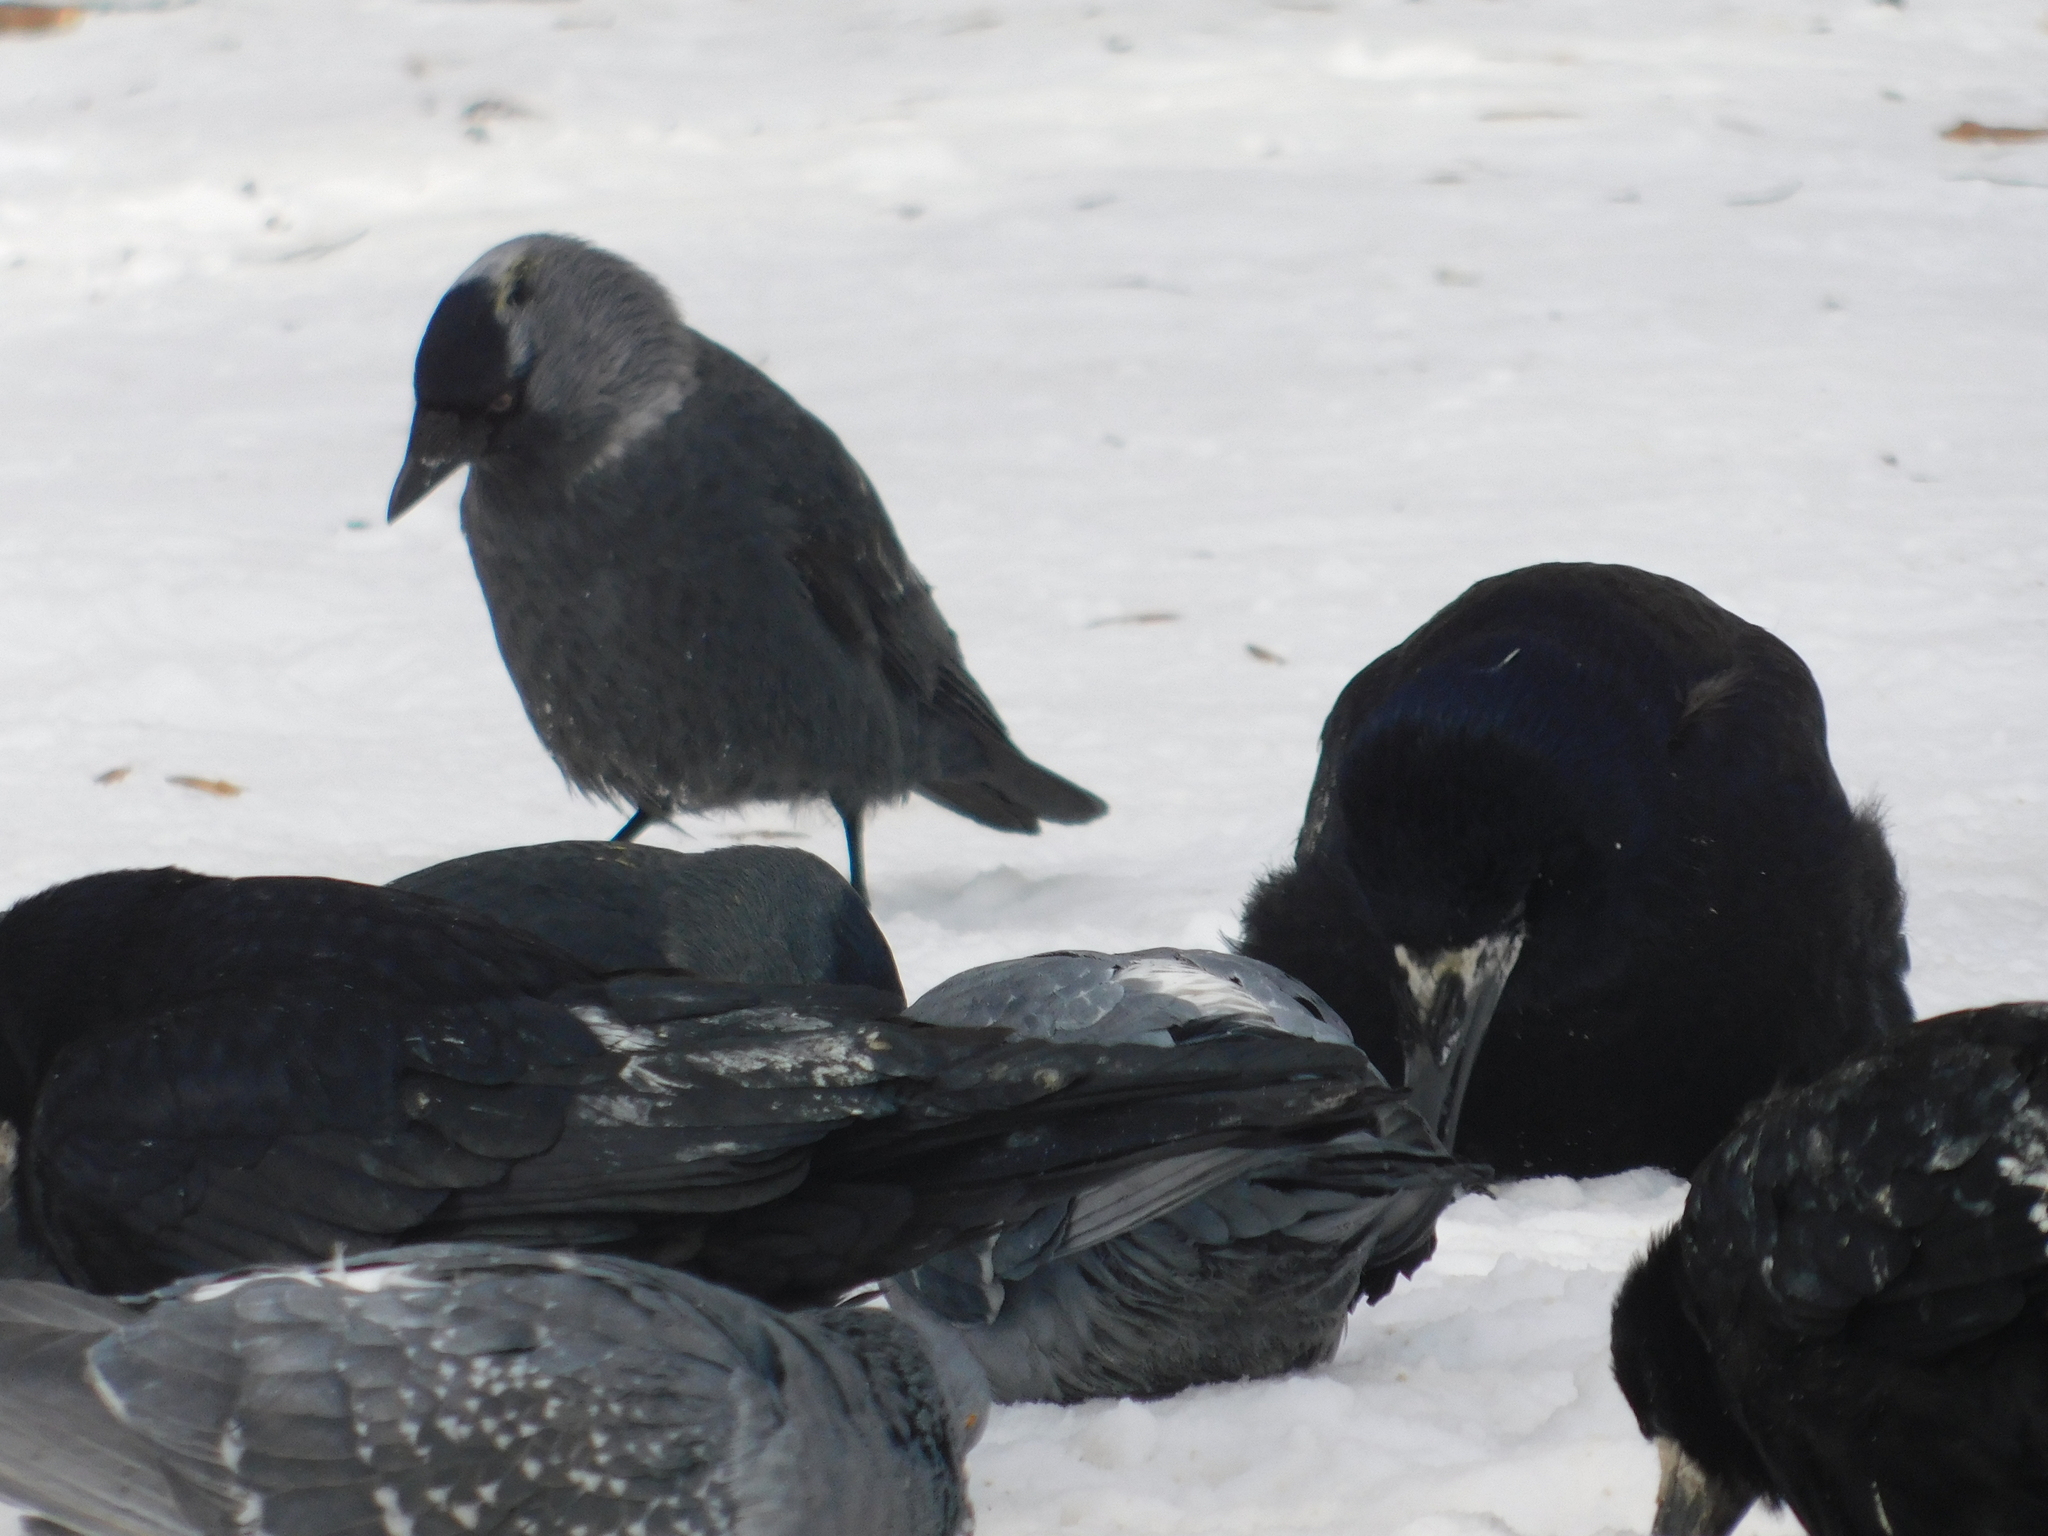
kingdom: Animalia
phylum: Chordata
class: Aves
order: Passeriformes
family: Corvidae
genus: Coloeus
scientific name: Coloeus monedula
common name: Western jackdaw
